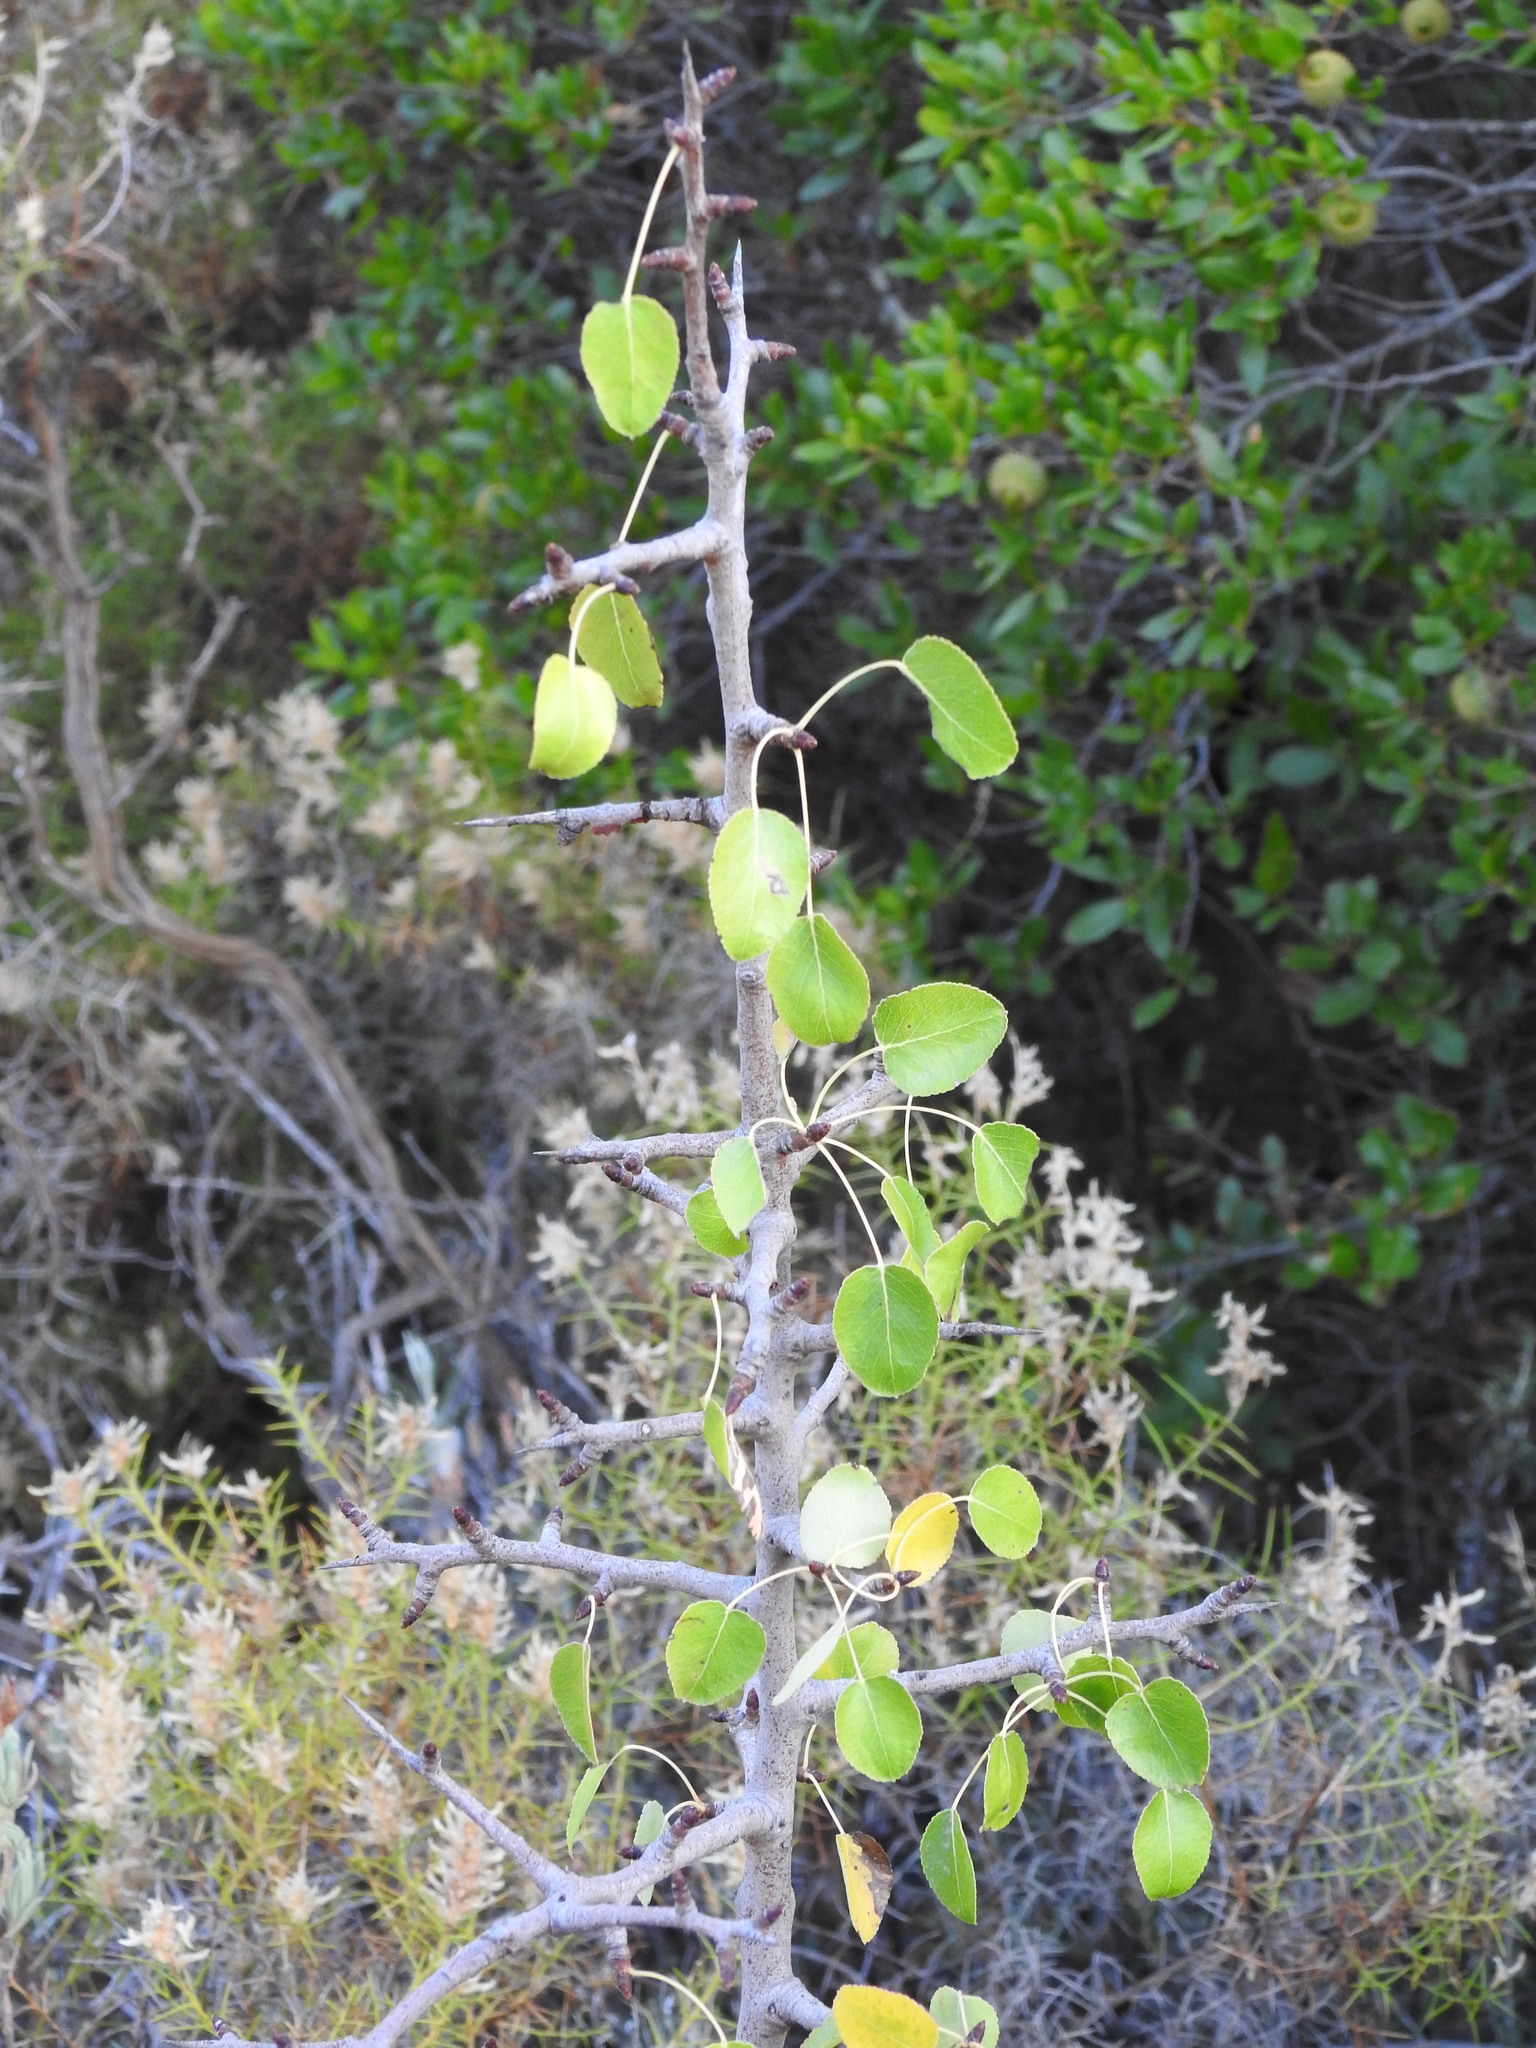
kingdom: Plantae
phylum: Tracheophyta
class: Magnoliopsida
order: Rosales
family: Rosaceae
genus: Pyrus
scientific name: Pyrus bourgaeana
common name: Iberian pear
